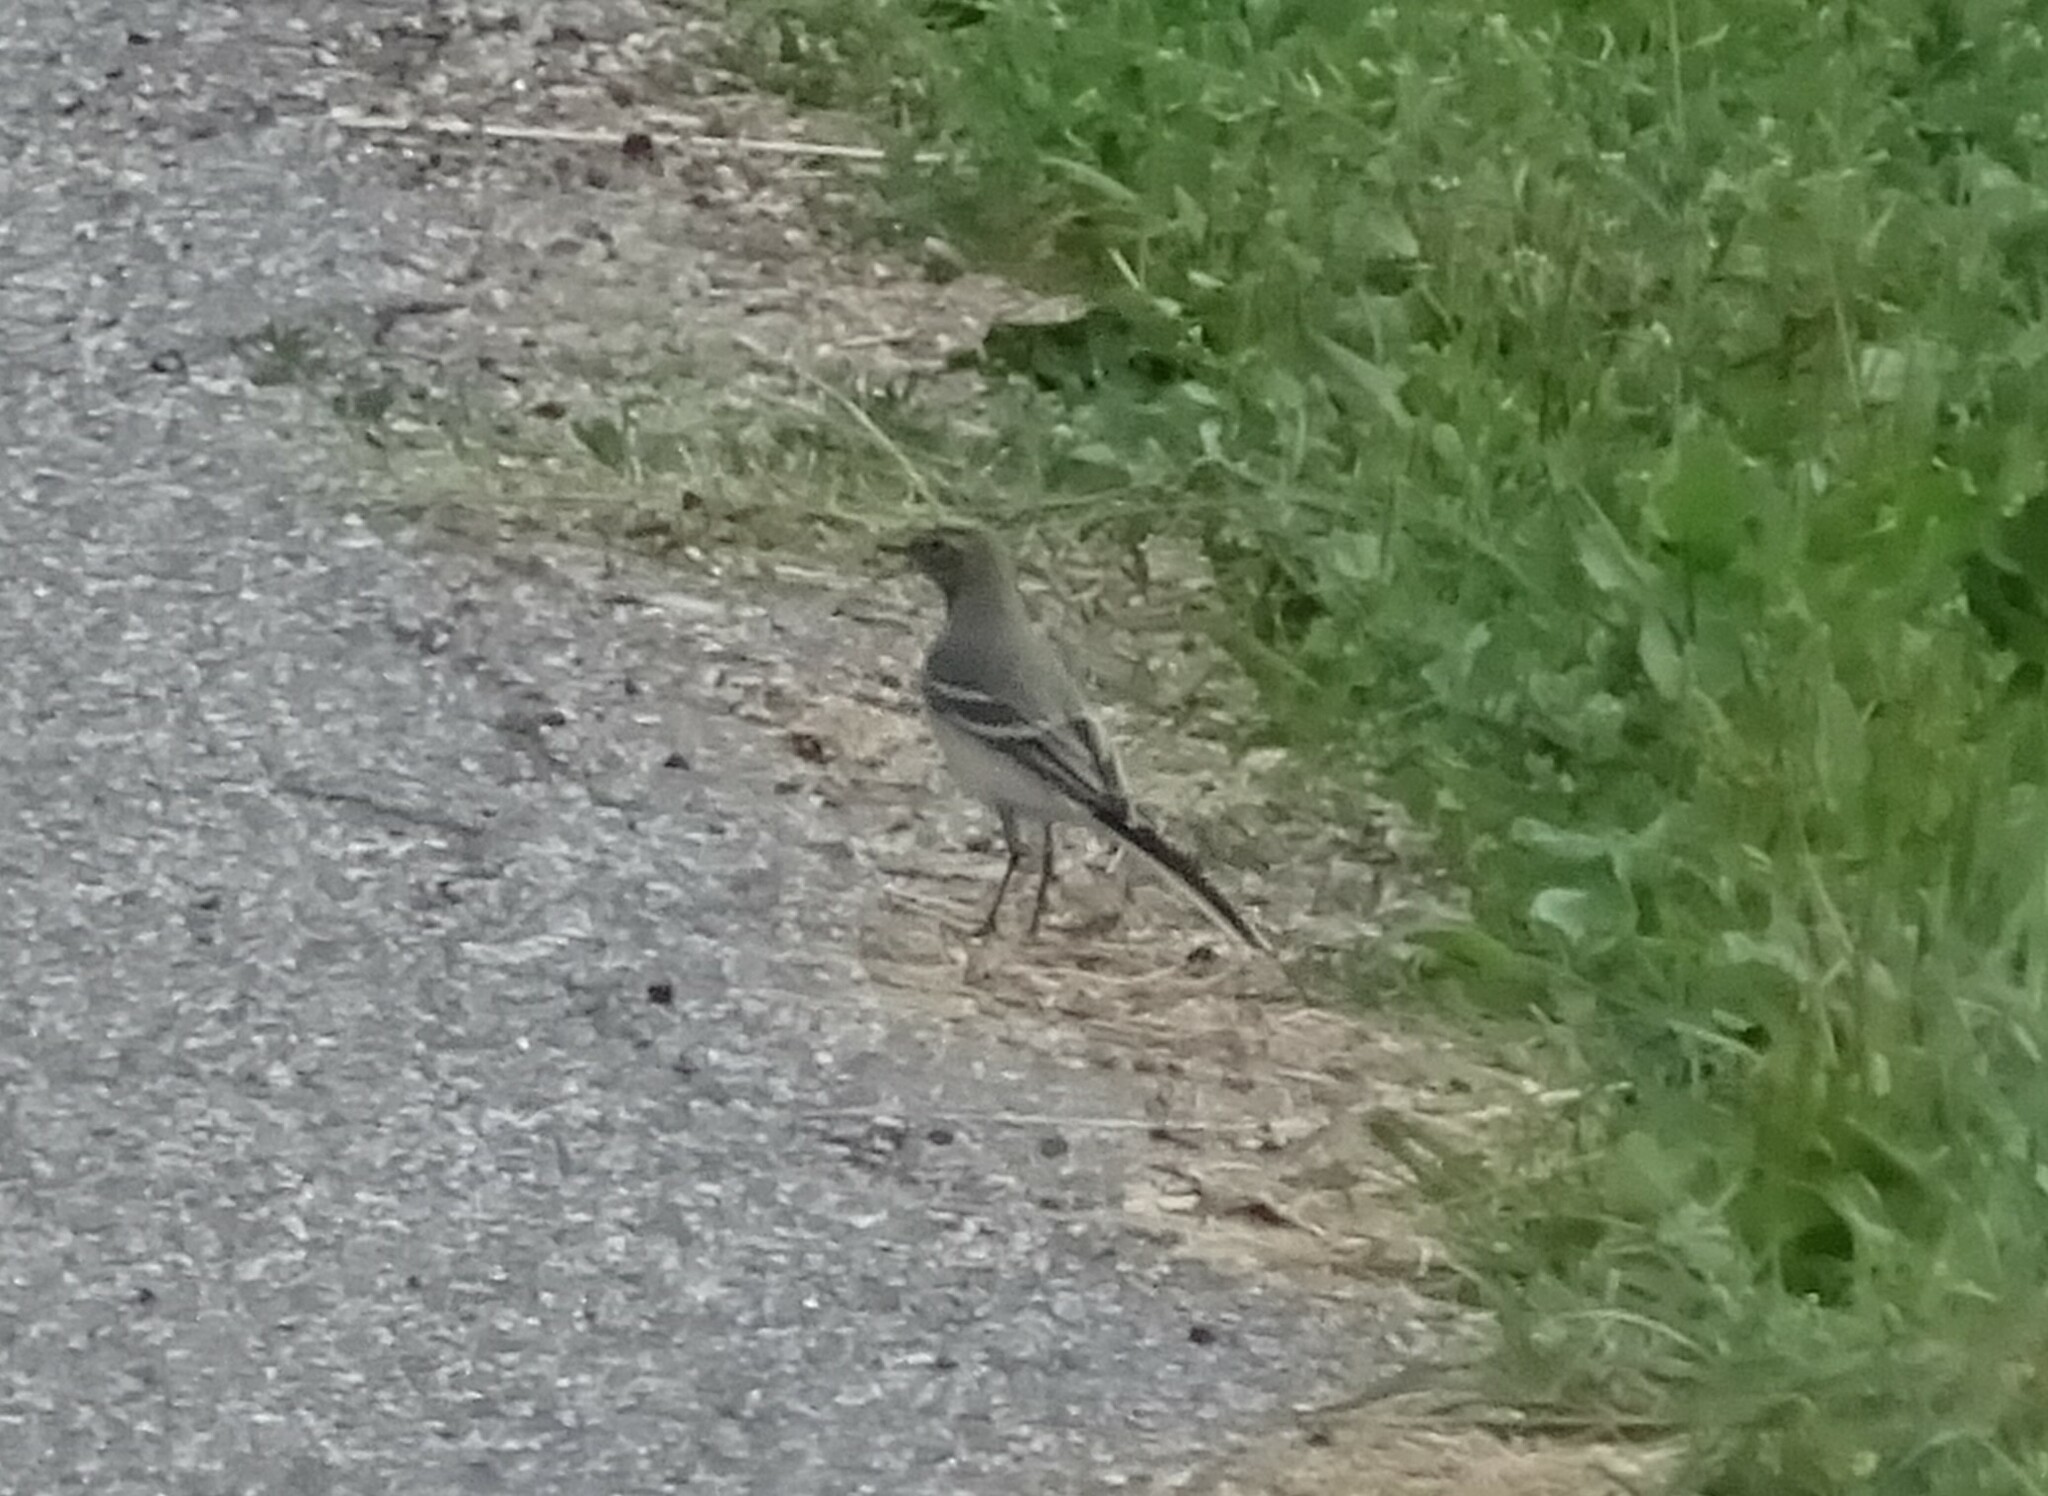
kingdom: Animalia
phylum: Chordata
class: Aves
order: Passeriformes
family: Motacillidae
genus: Motacilla
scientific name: Motacilla alba
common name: White wagtail
